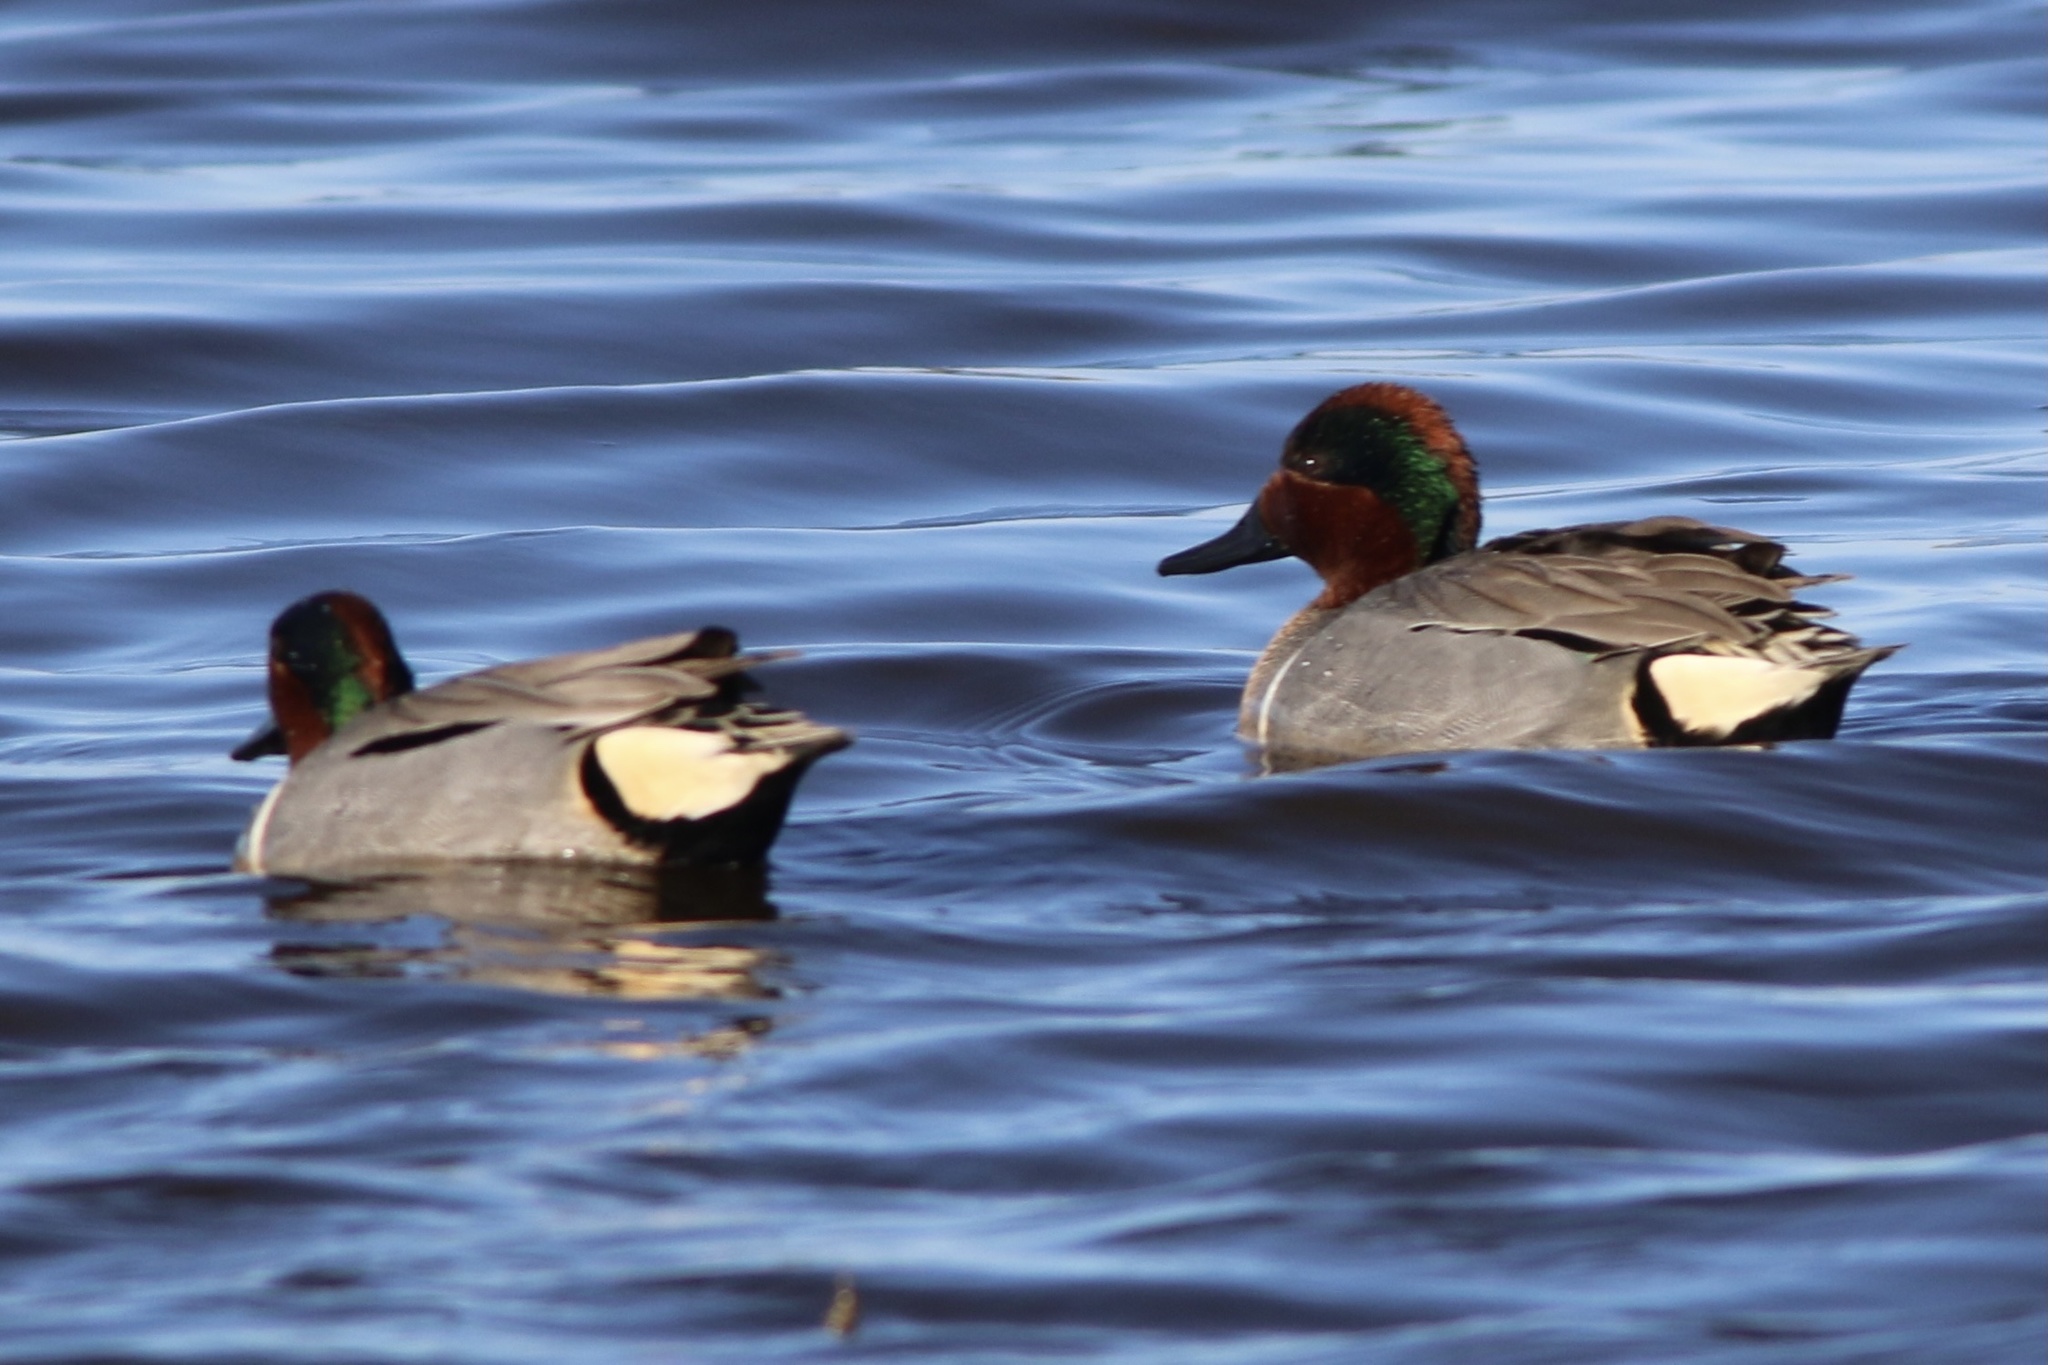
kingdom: Animalia
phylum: Chordata
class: Aves
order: Anseriformes
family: Anatidae
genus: Anas
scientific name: Anas carolinensis
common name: Green-winged teal
